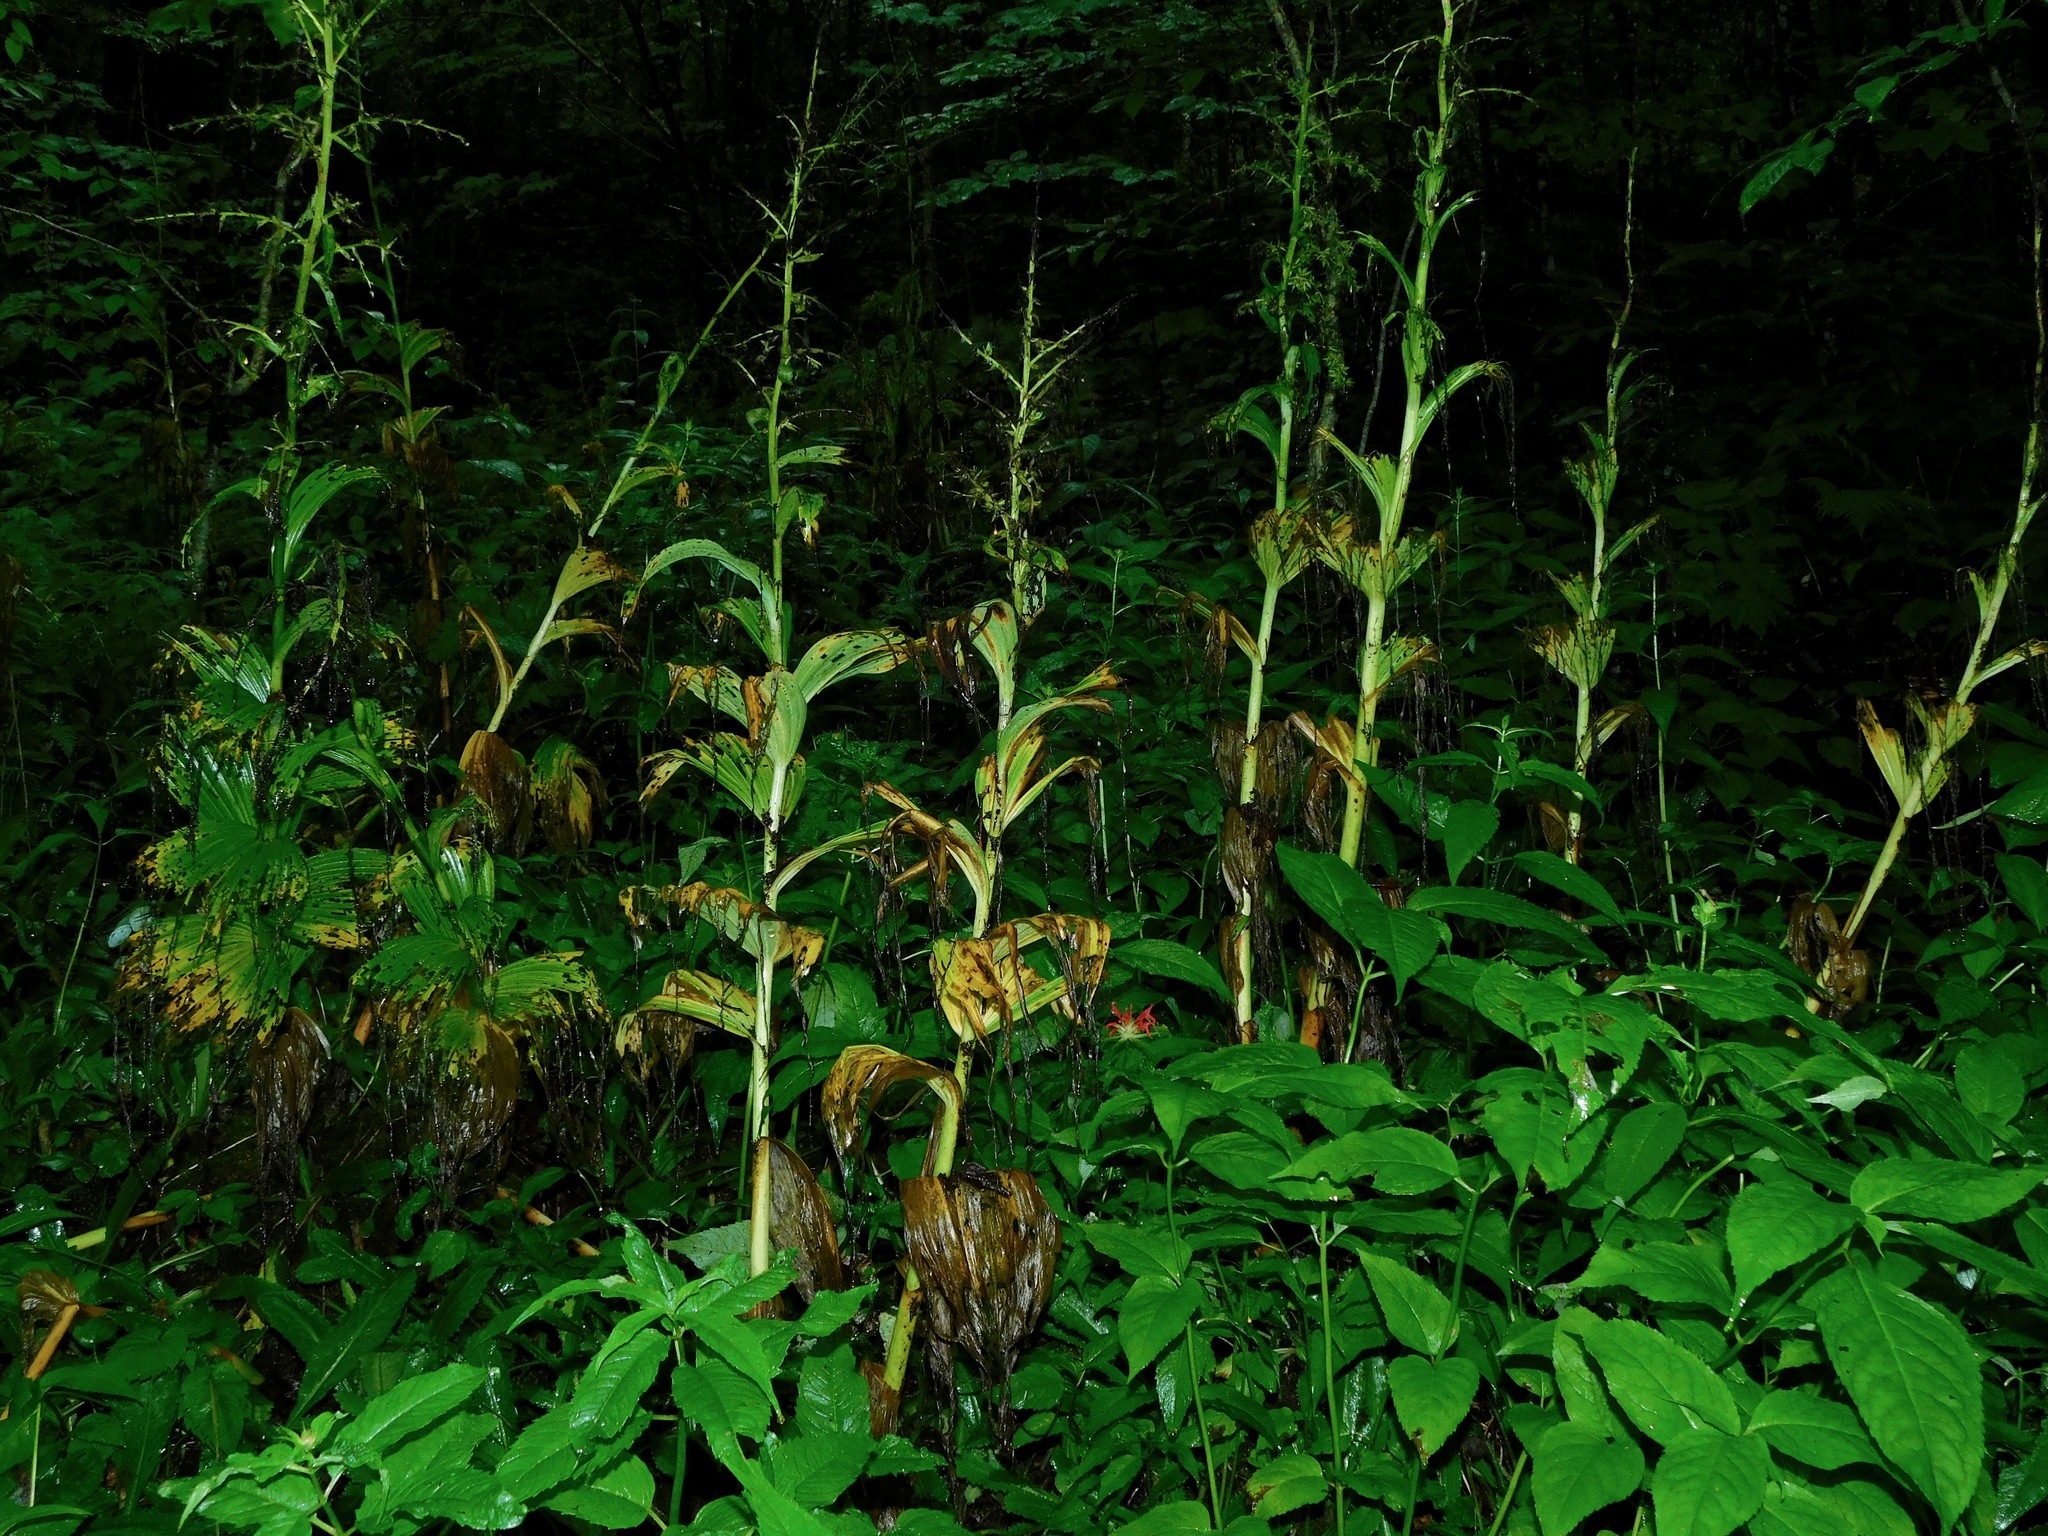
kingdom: Plantae
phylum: Tracheophyta
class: Liliopsida
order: Liliales
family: Melanthiaceae
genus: Veratrum
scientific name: Veratrum viride
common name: American false hellebore
